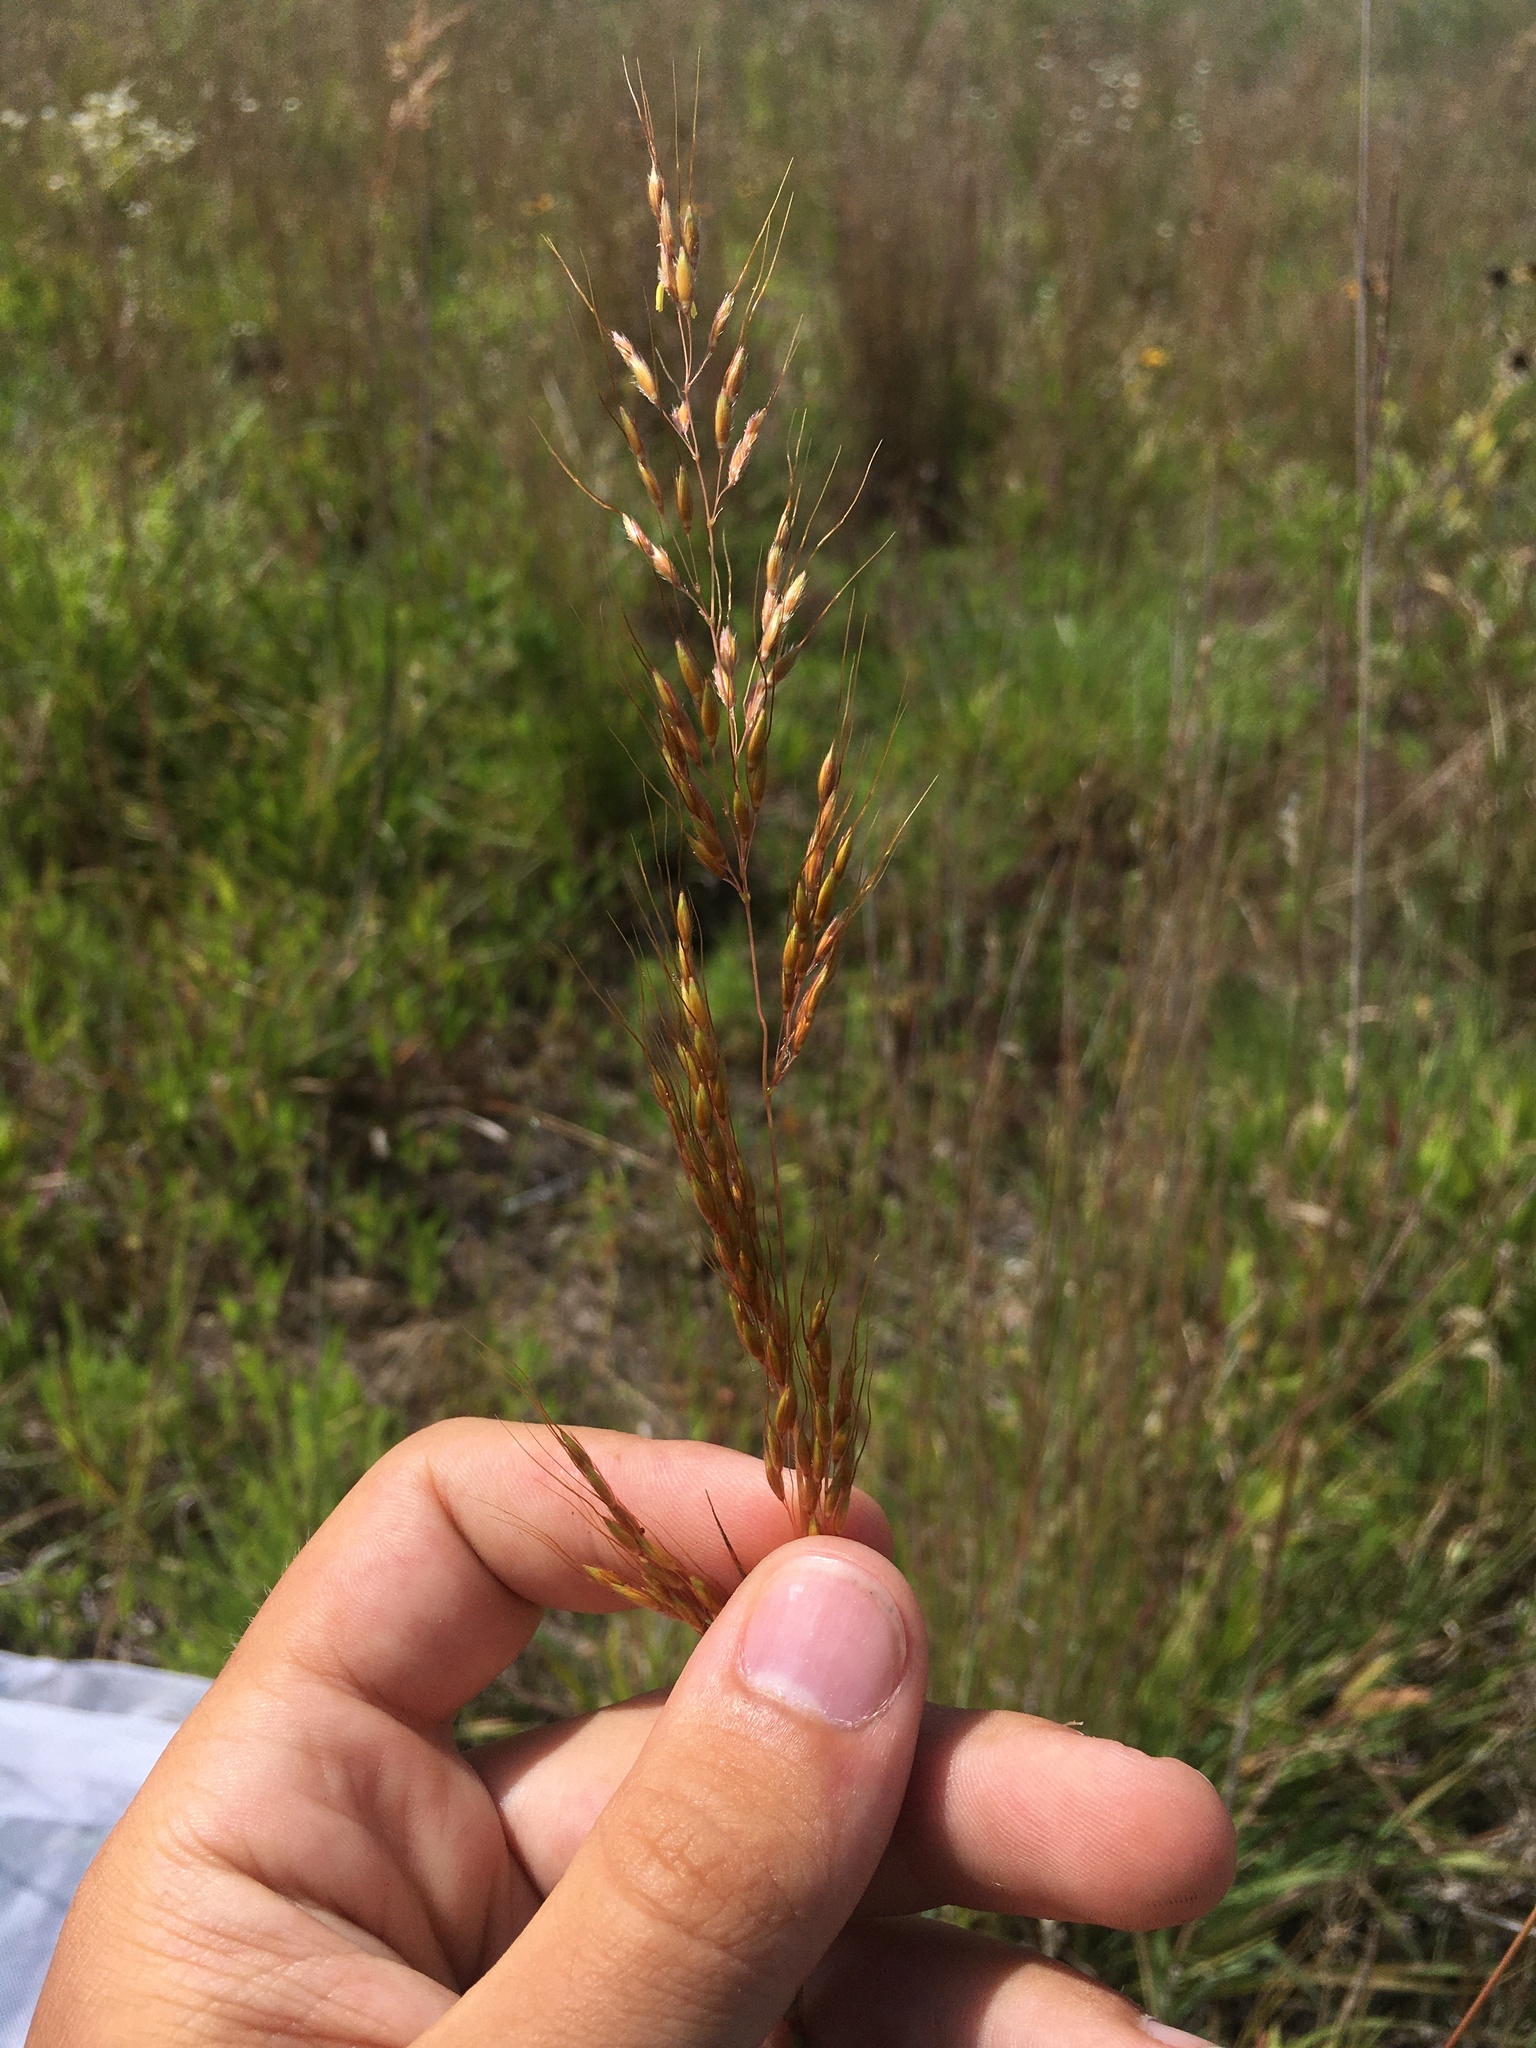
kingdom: Plantae
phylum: Tracheophyta
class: Liliopsida
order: Poales
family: Poaceae
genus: Sorghastrum
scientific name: Sorghastrum nutans
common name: Indian grass
